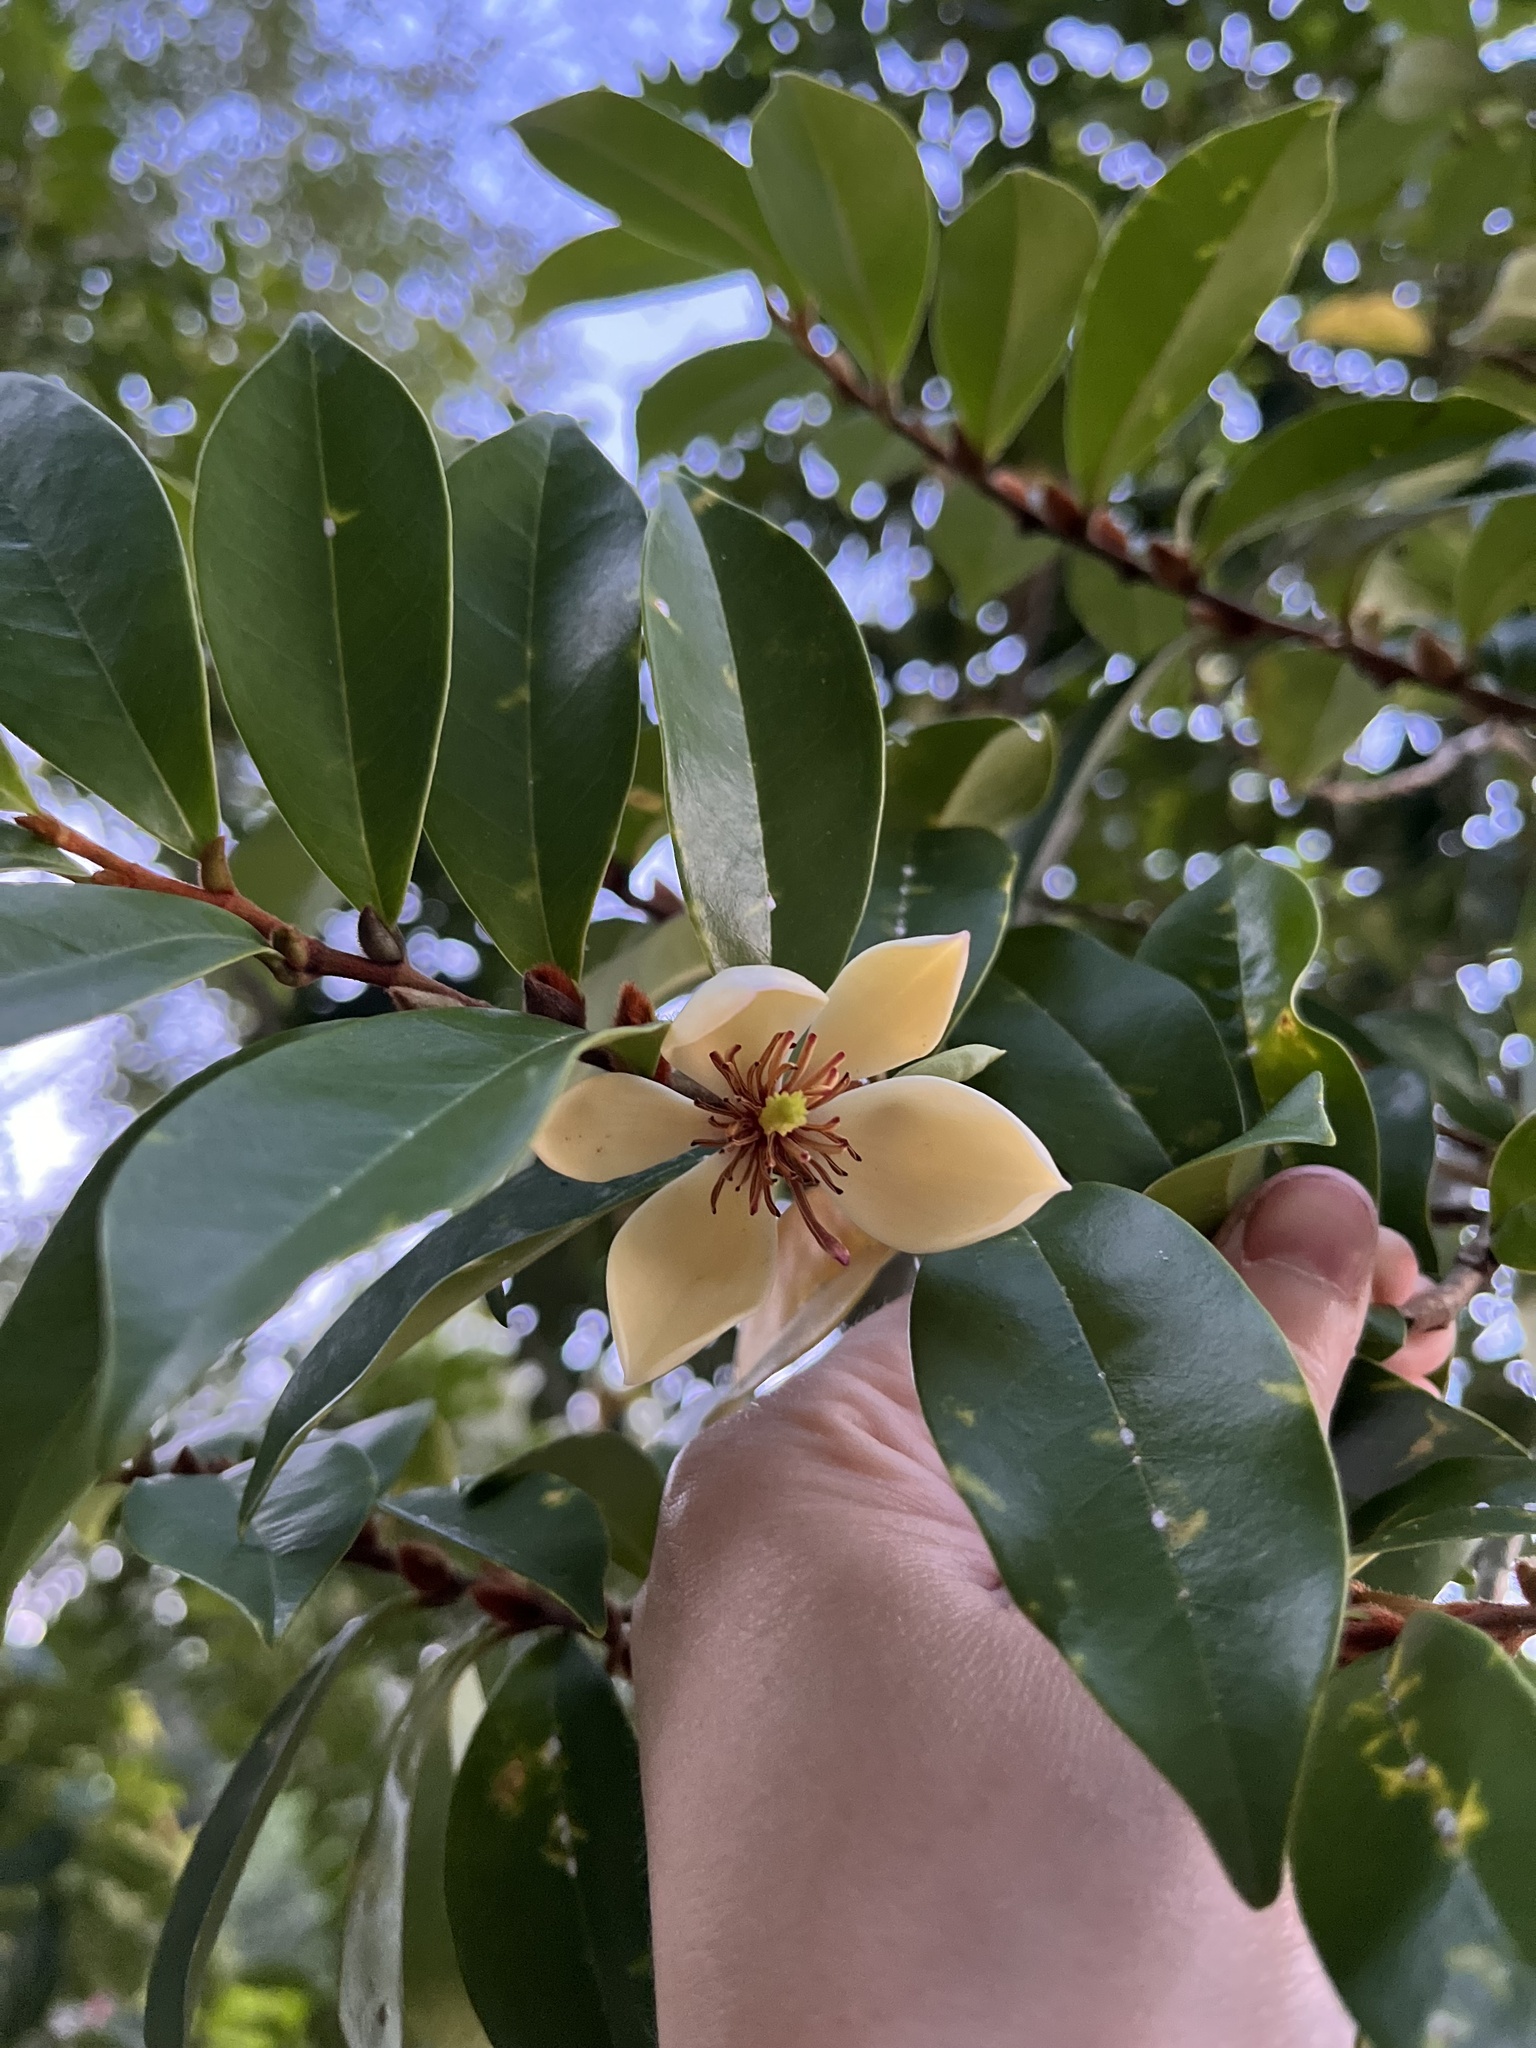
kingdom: Plantae
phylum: Tracheophyta
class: Magnoliopsida
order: Magnoliales
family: Magnoliaceae
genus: Magnolia
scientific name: Magnolia figo
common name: Banana shrub
